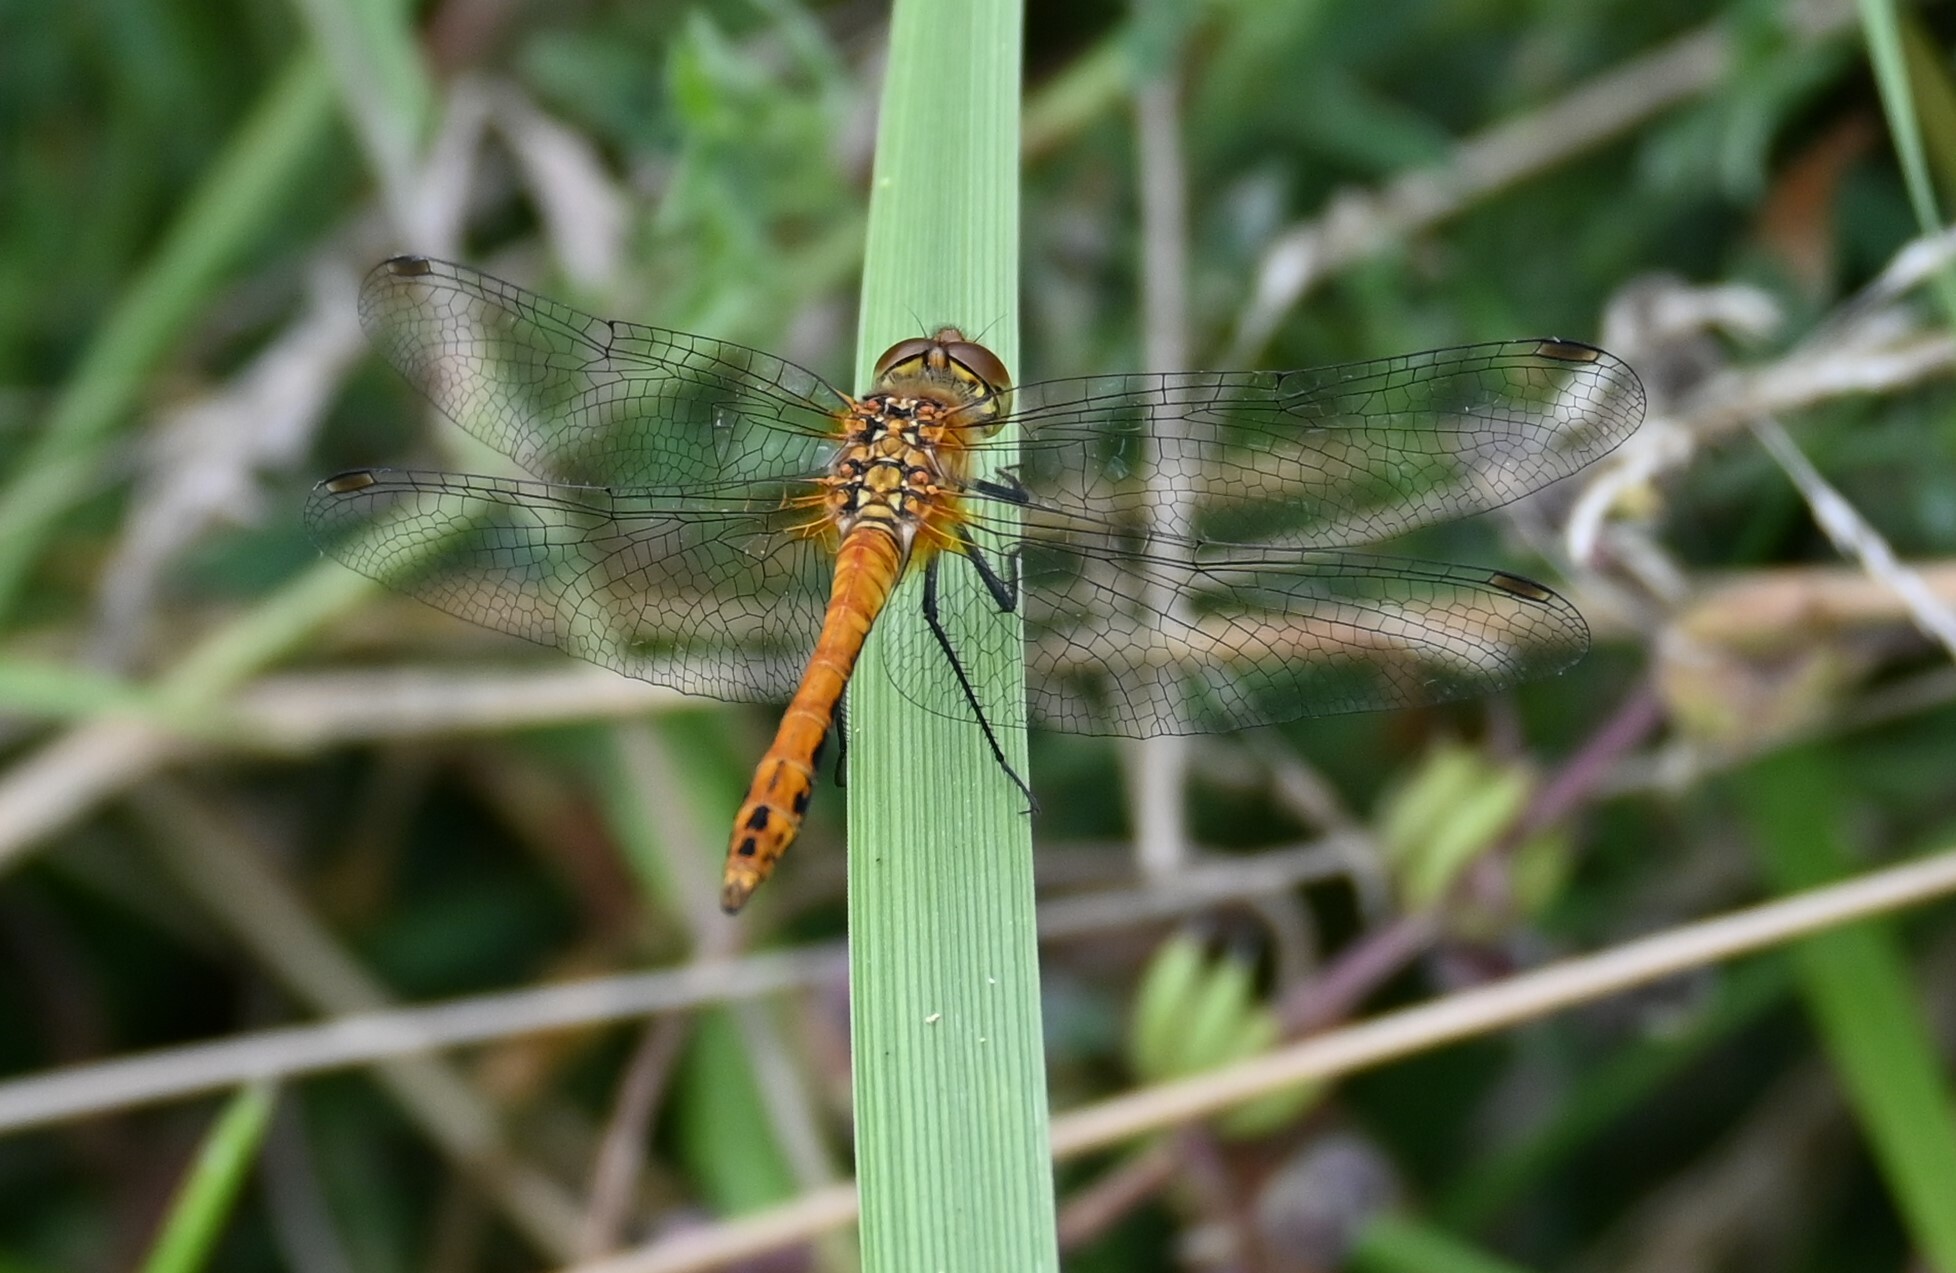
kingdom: Animalia
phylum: Arthropoda
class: Insecta
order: Odonata
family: Libellulidae
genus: Sympetrum
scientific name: Sympetrum sanguineum
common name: Ruddy darter
